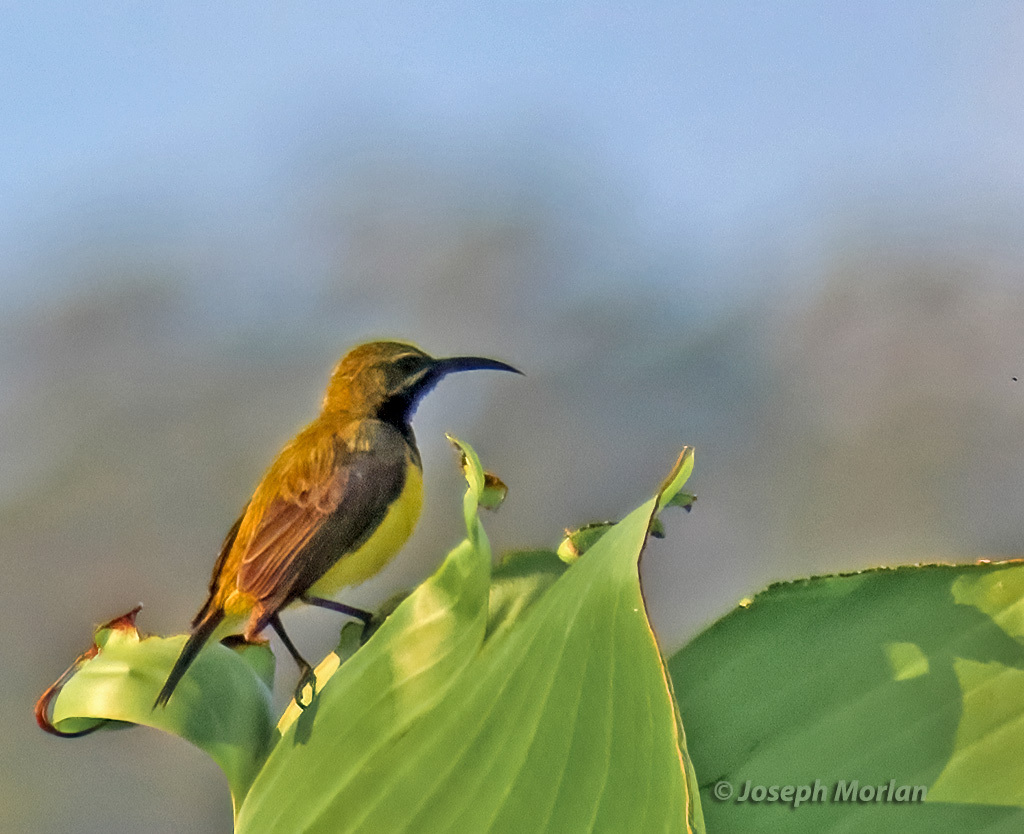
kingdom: Animalia
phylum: Chordata
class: Aves
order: Passeriformes
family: Nectariniidae
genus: Cinnyris
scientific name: Cinnyris
